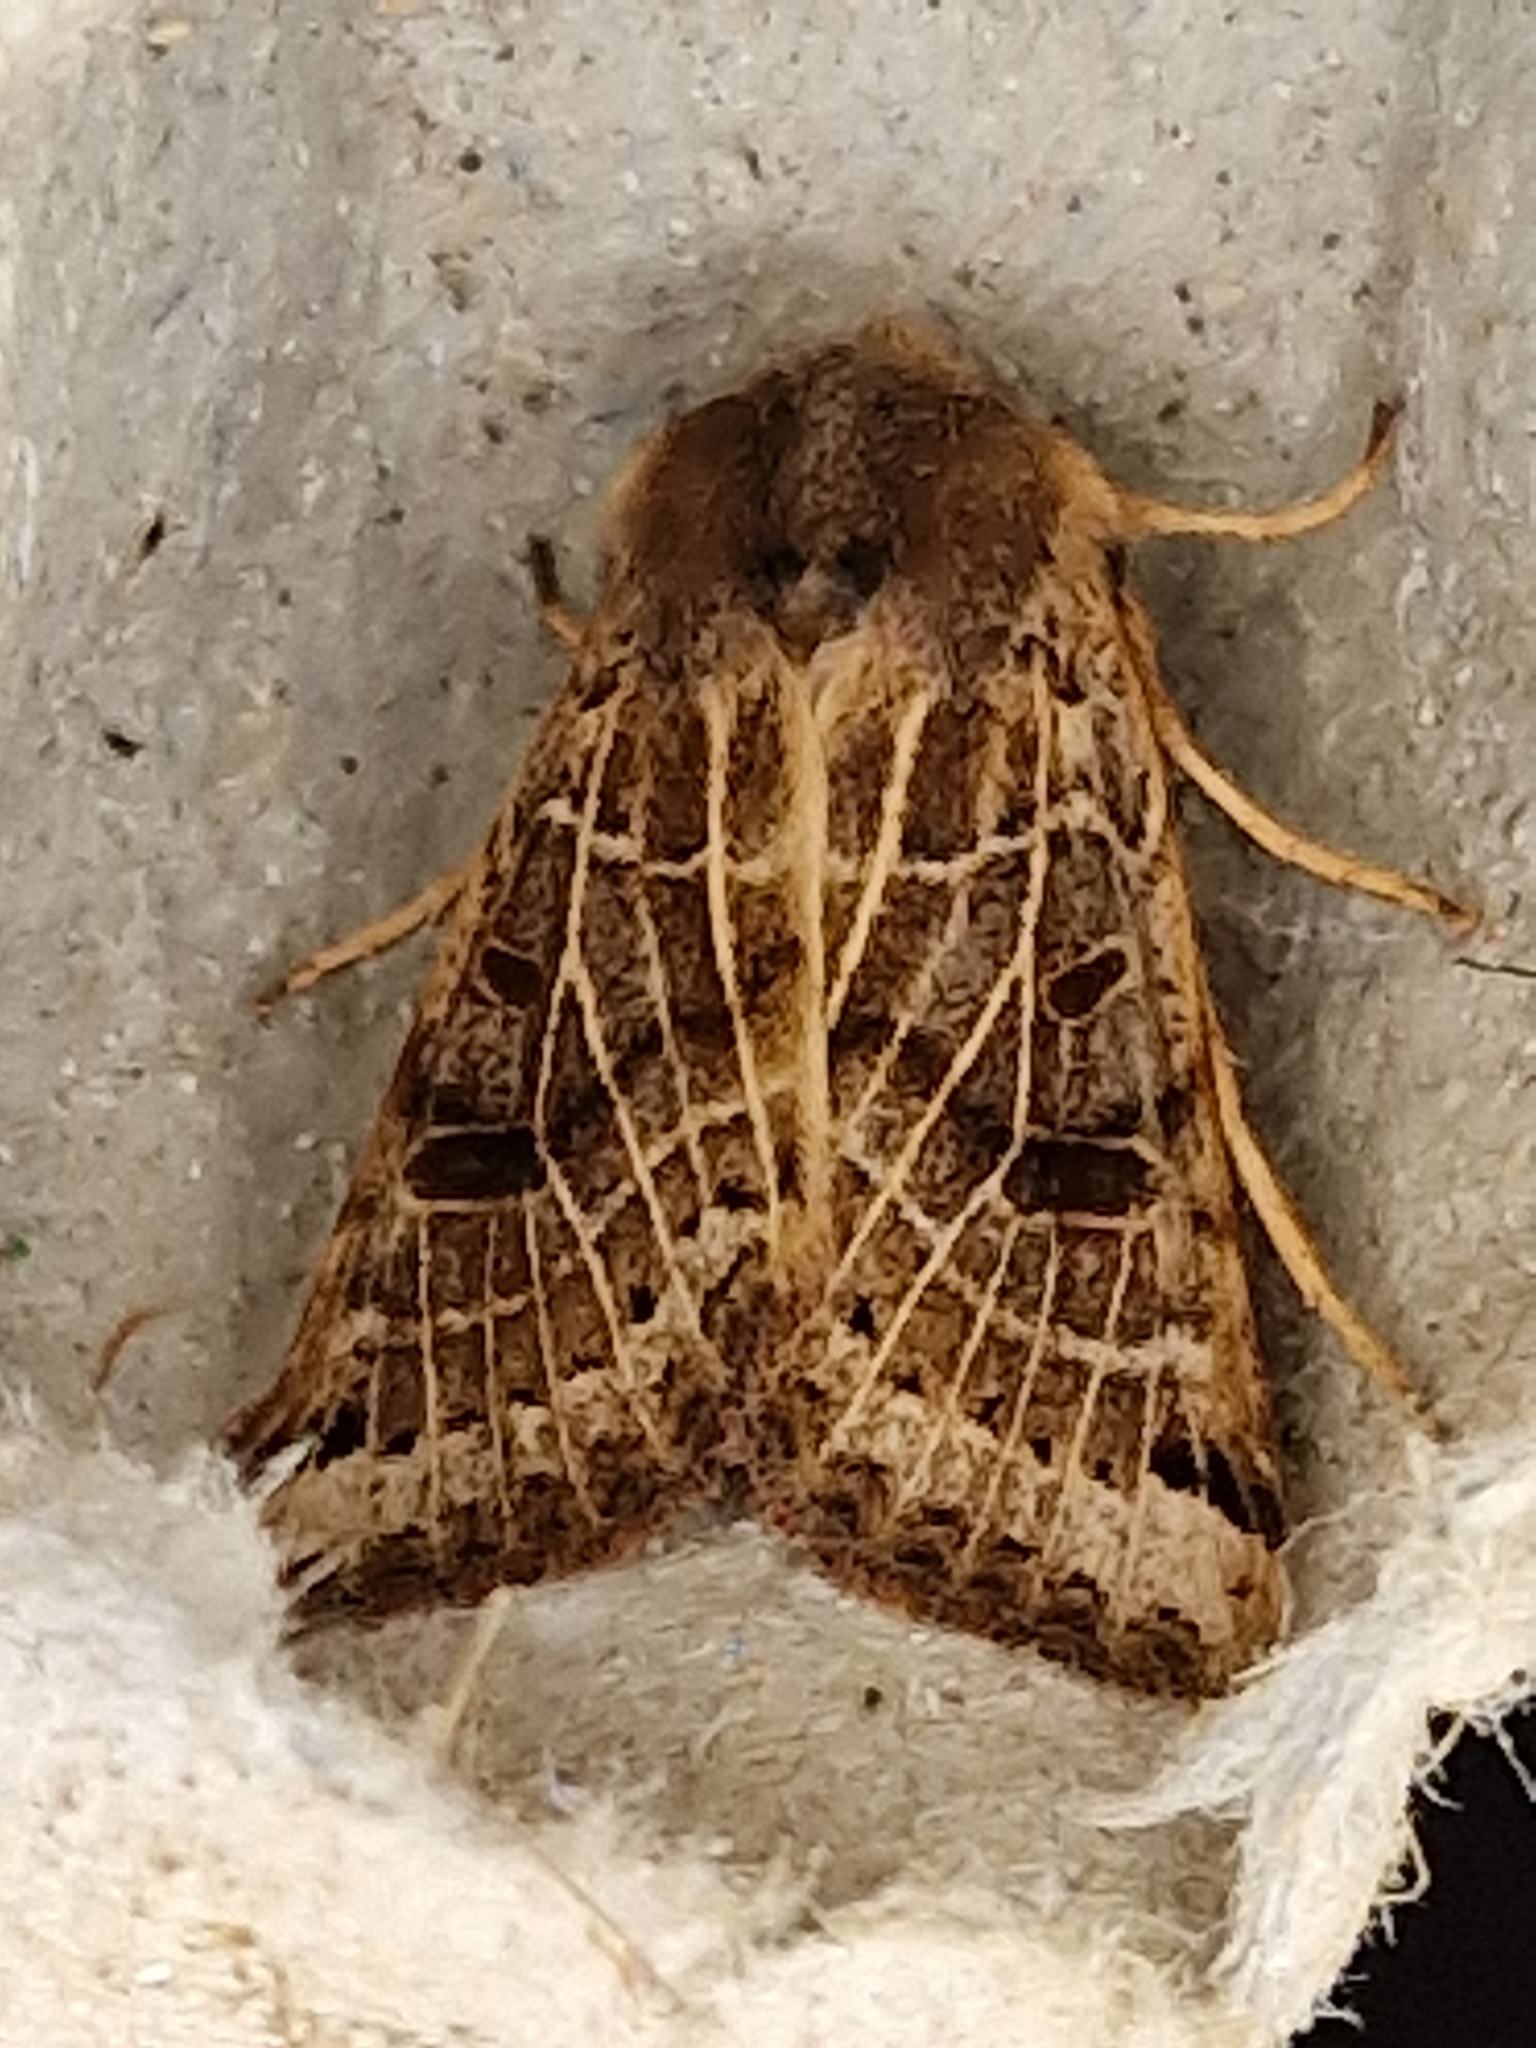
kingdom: Animalia
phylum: Arthropoda
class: Insecta
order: Lepidoptera
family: Noctuidae
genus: Agrochola
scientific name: Agrochola lunosa
